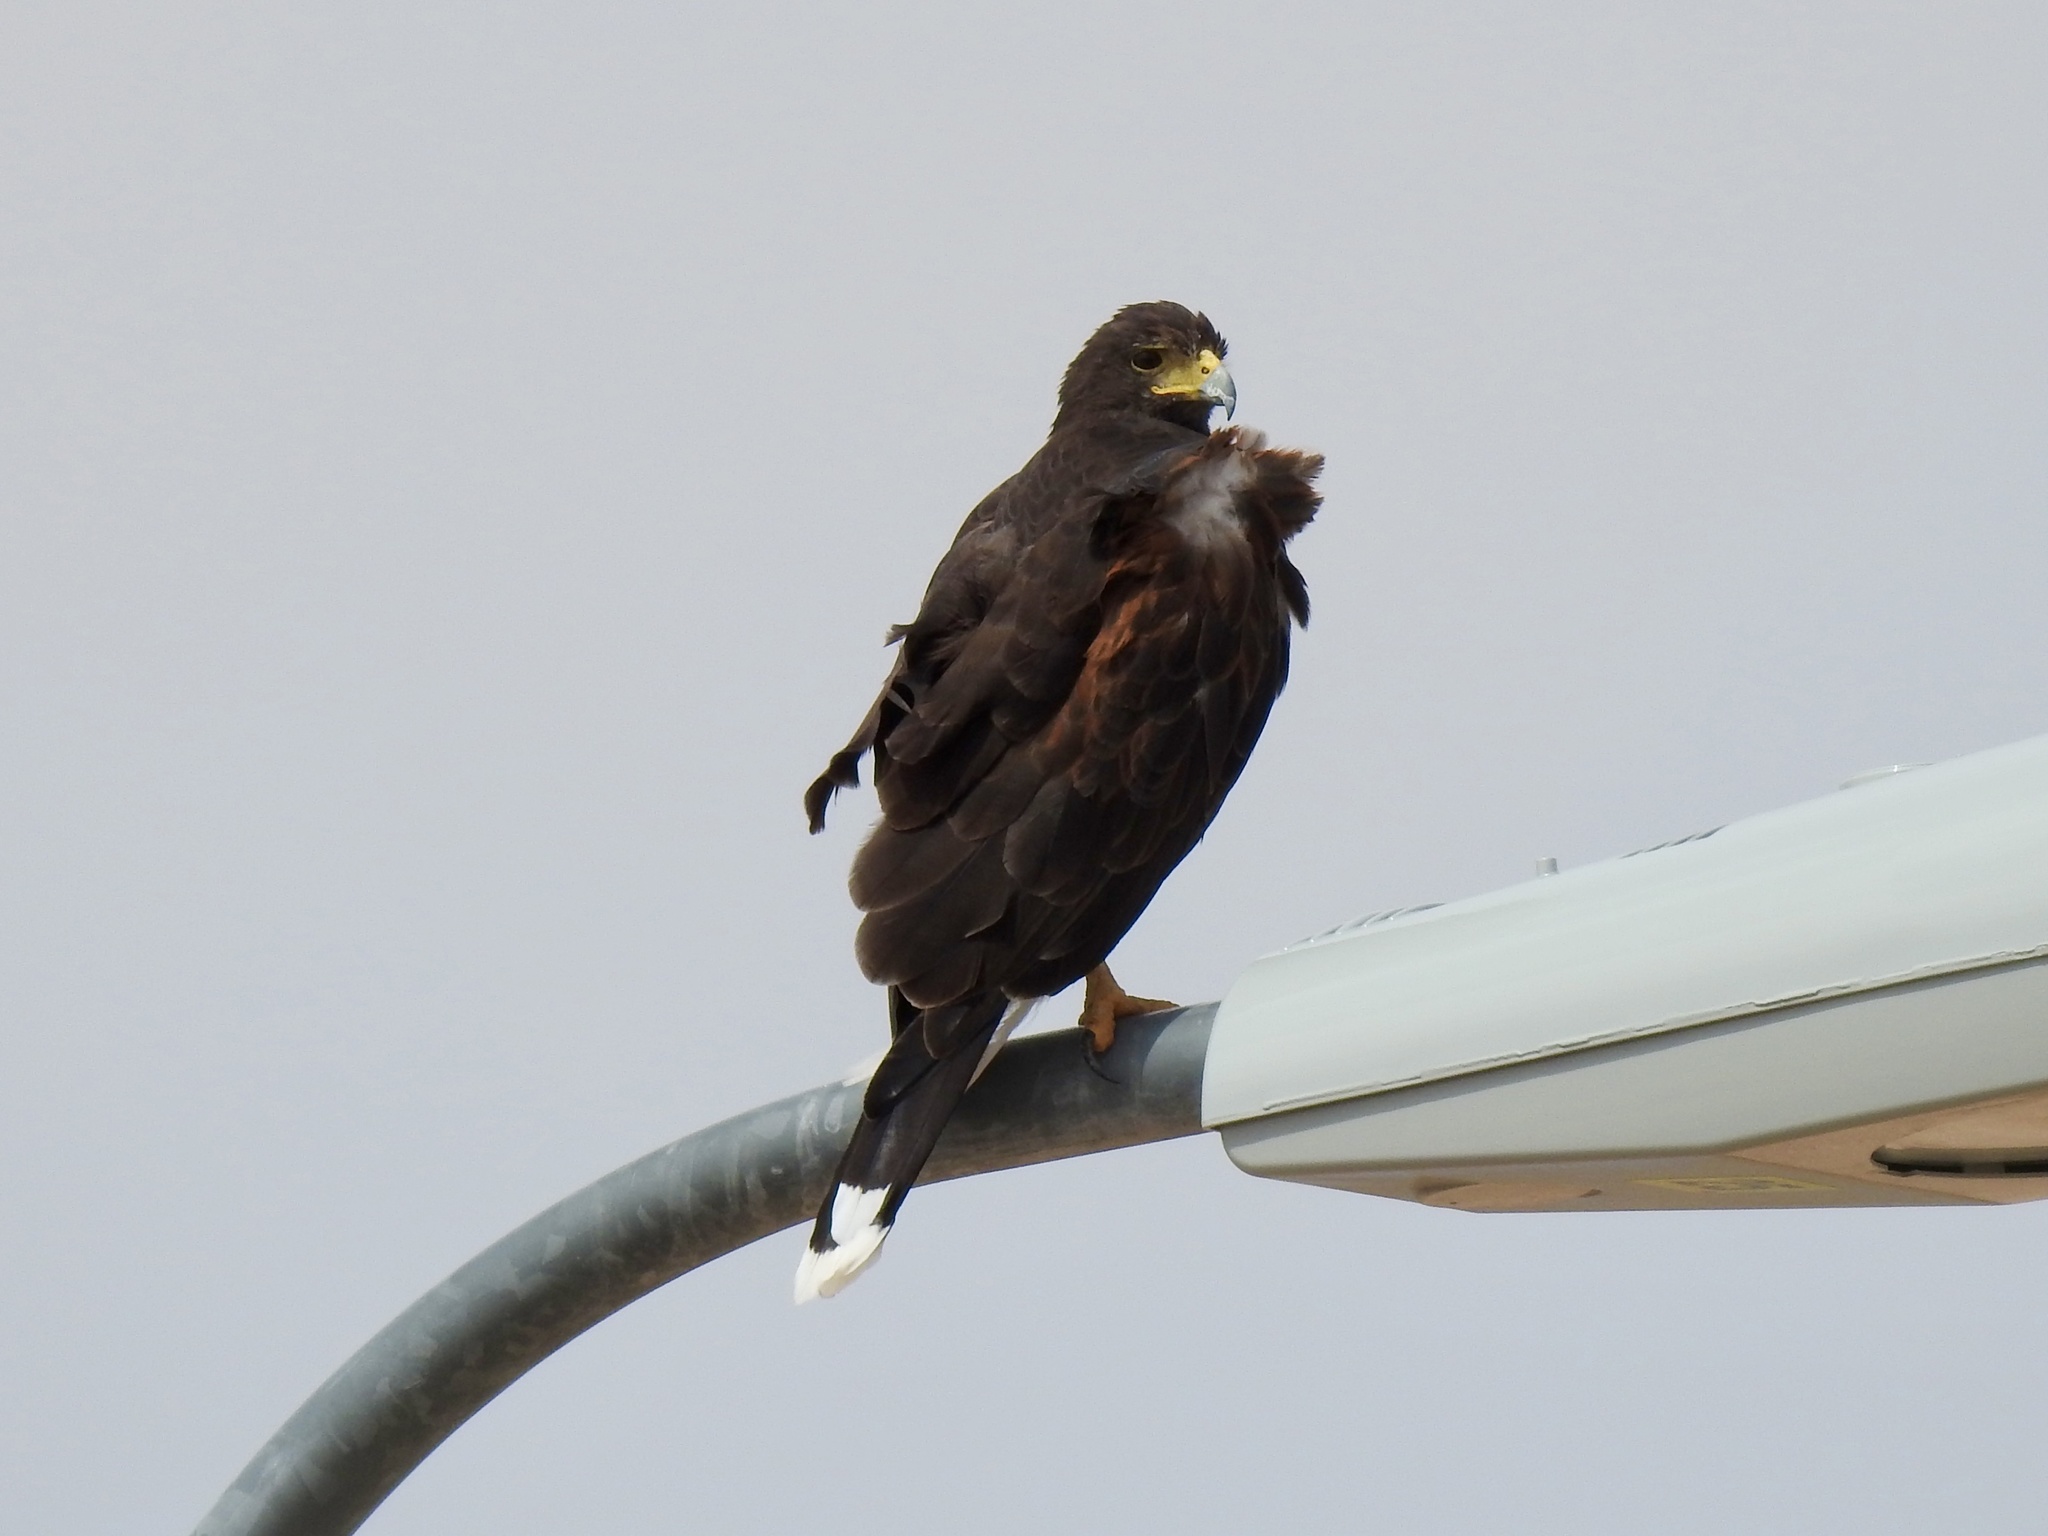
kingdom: Animalia
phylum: Chordata
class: Aves
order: Accipitriformes
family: Accipitridae
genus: Parabuteo
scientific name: Parabuteo unicinctus
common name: Harris's hawk
